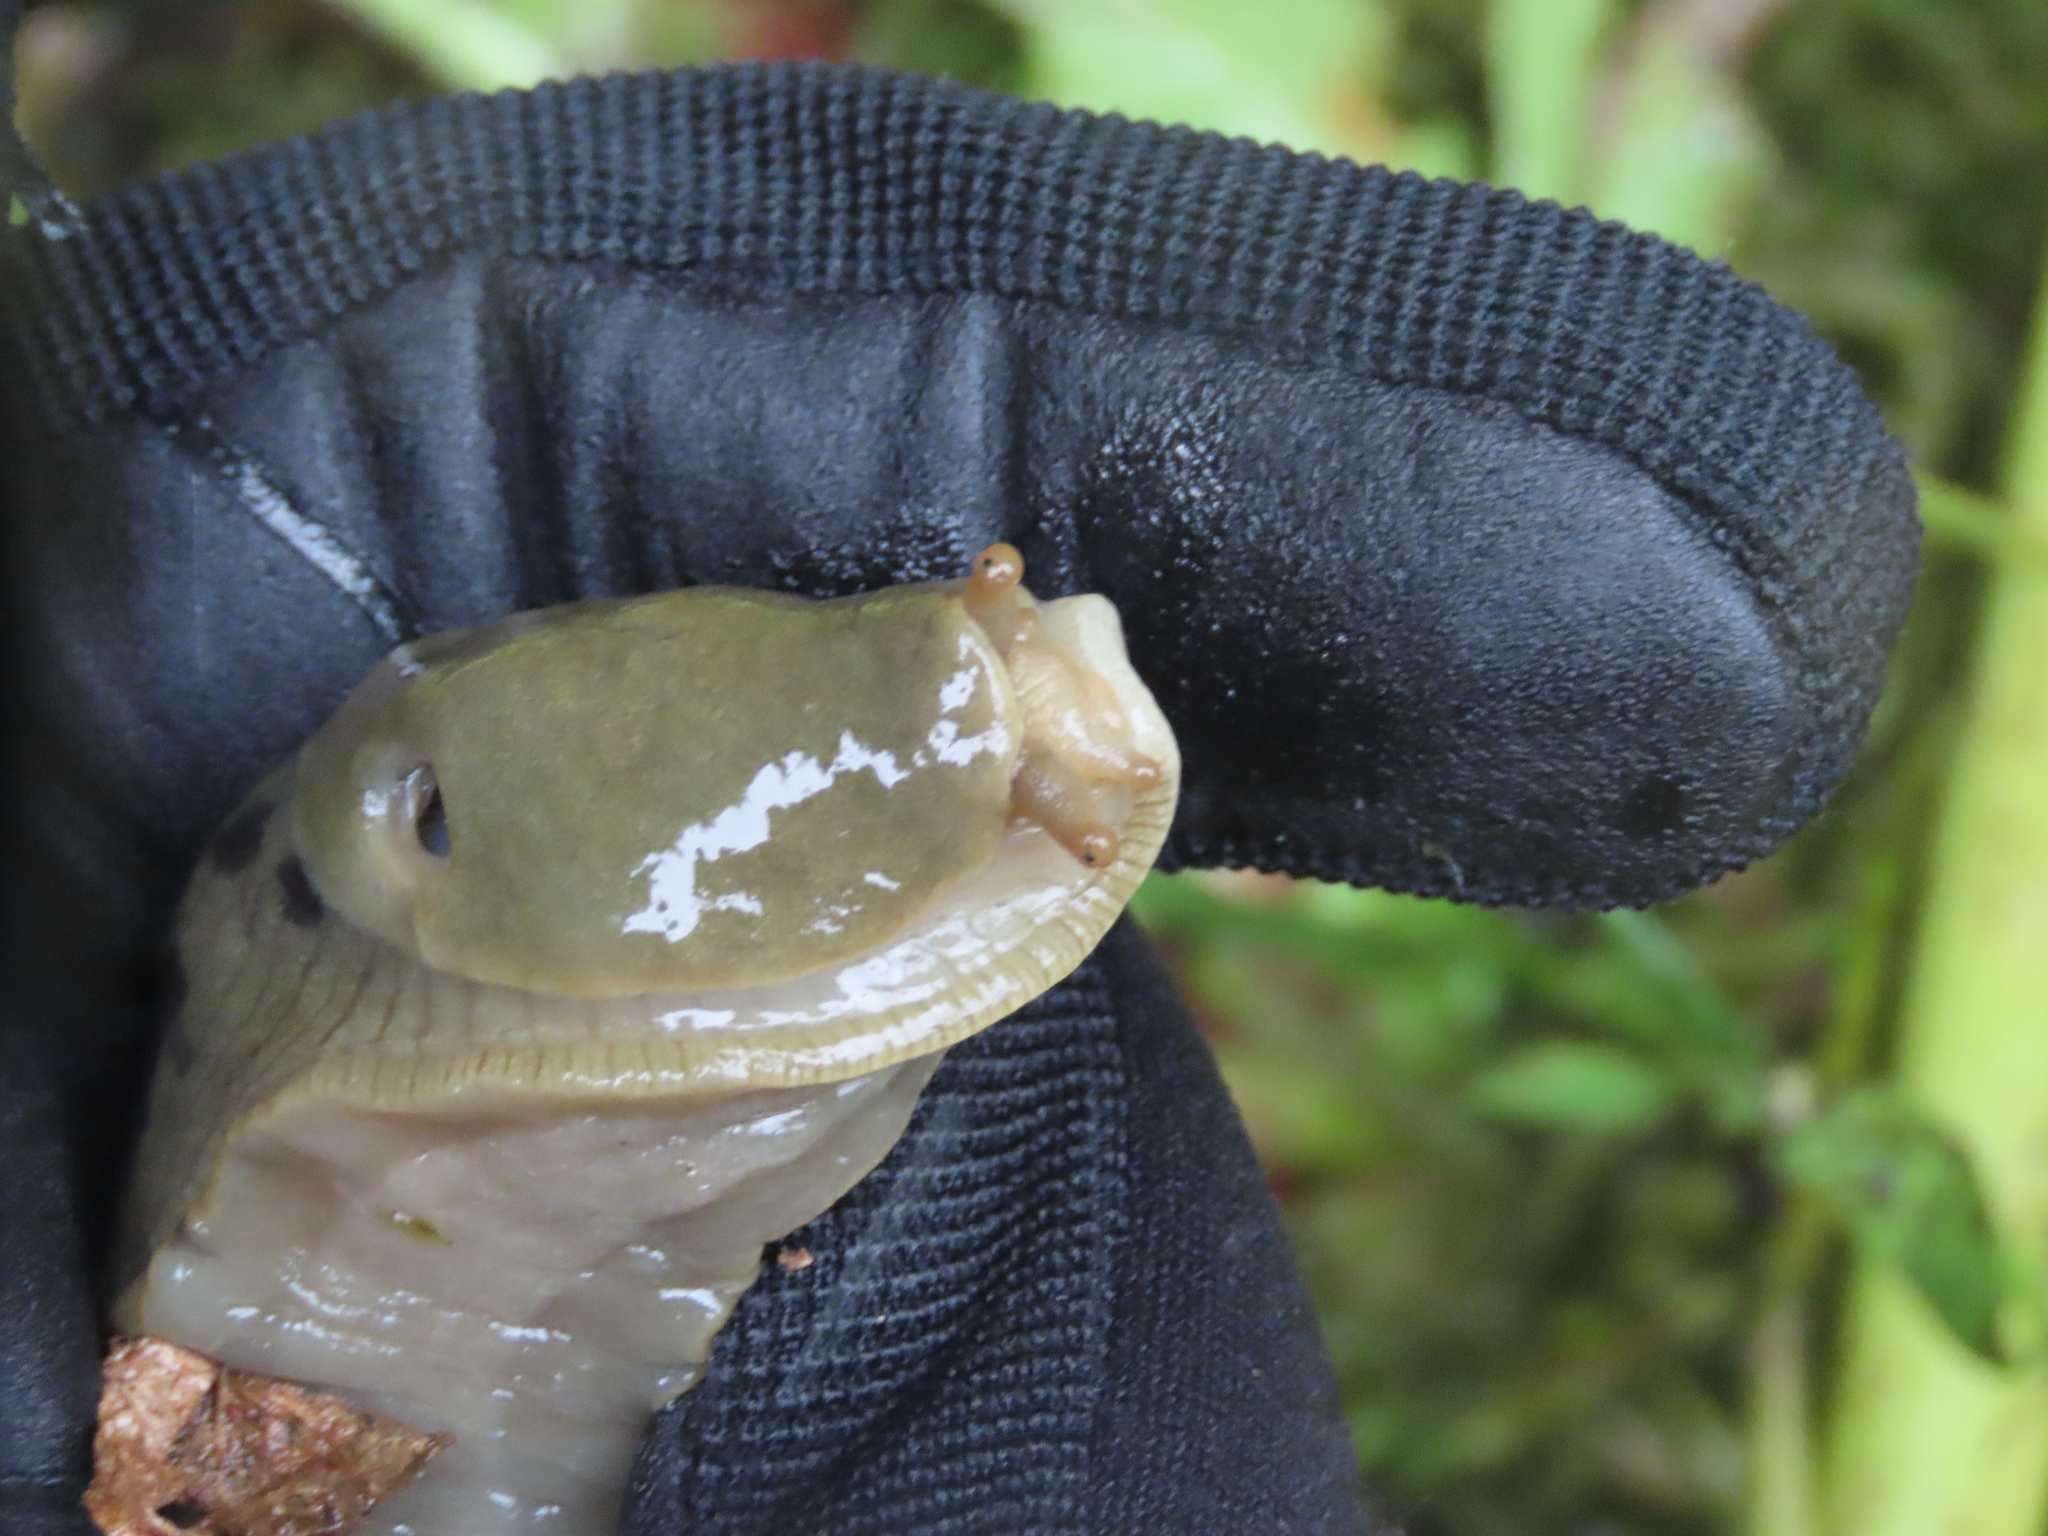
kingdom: Animalia
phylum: Mollusca
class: Gastropoda
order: Stylommatophora
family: Ariolimacidae
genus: Ariolimax
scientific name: Ariolimax columbianus
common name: Pacific banana slug
